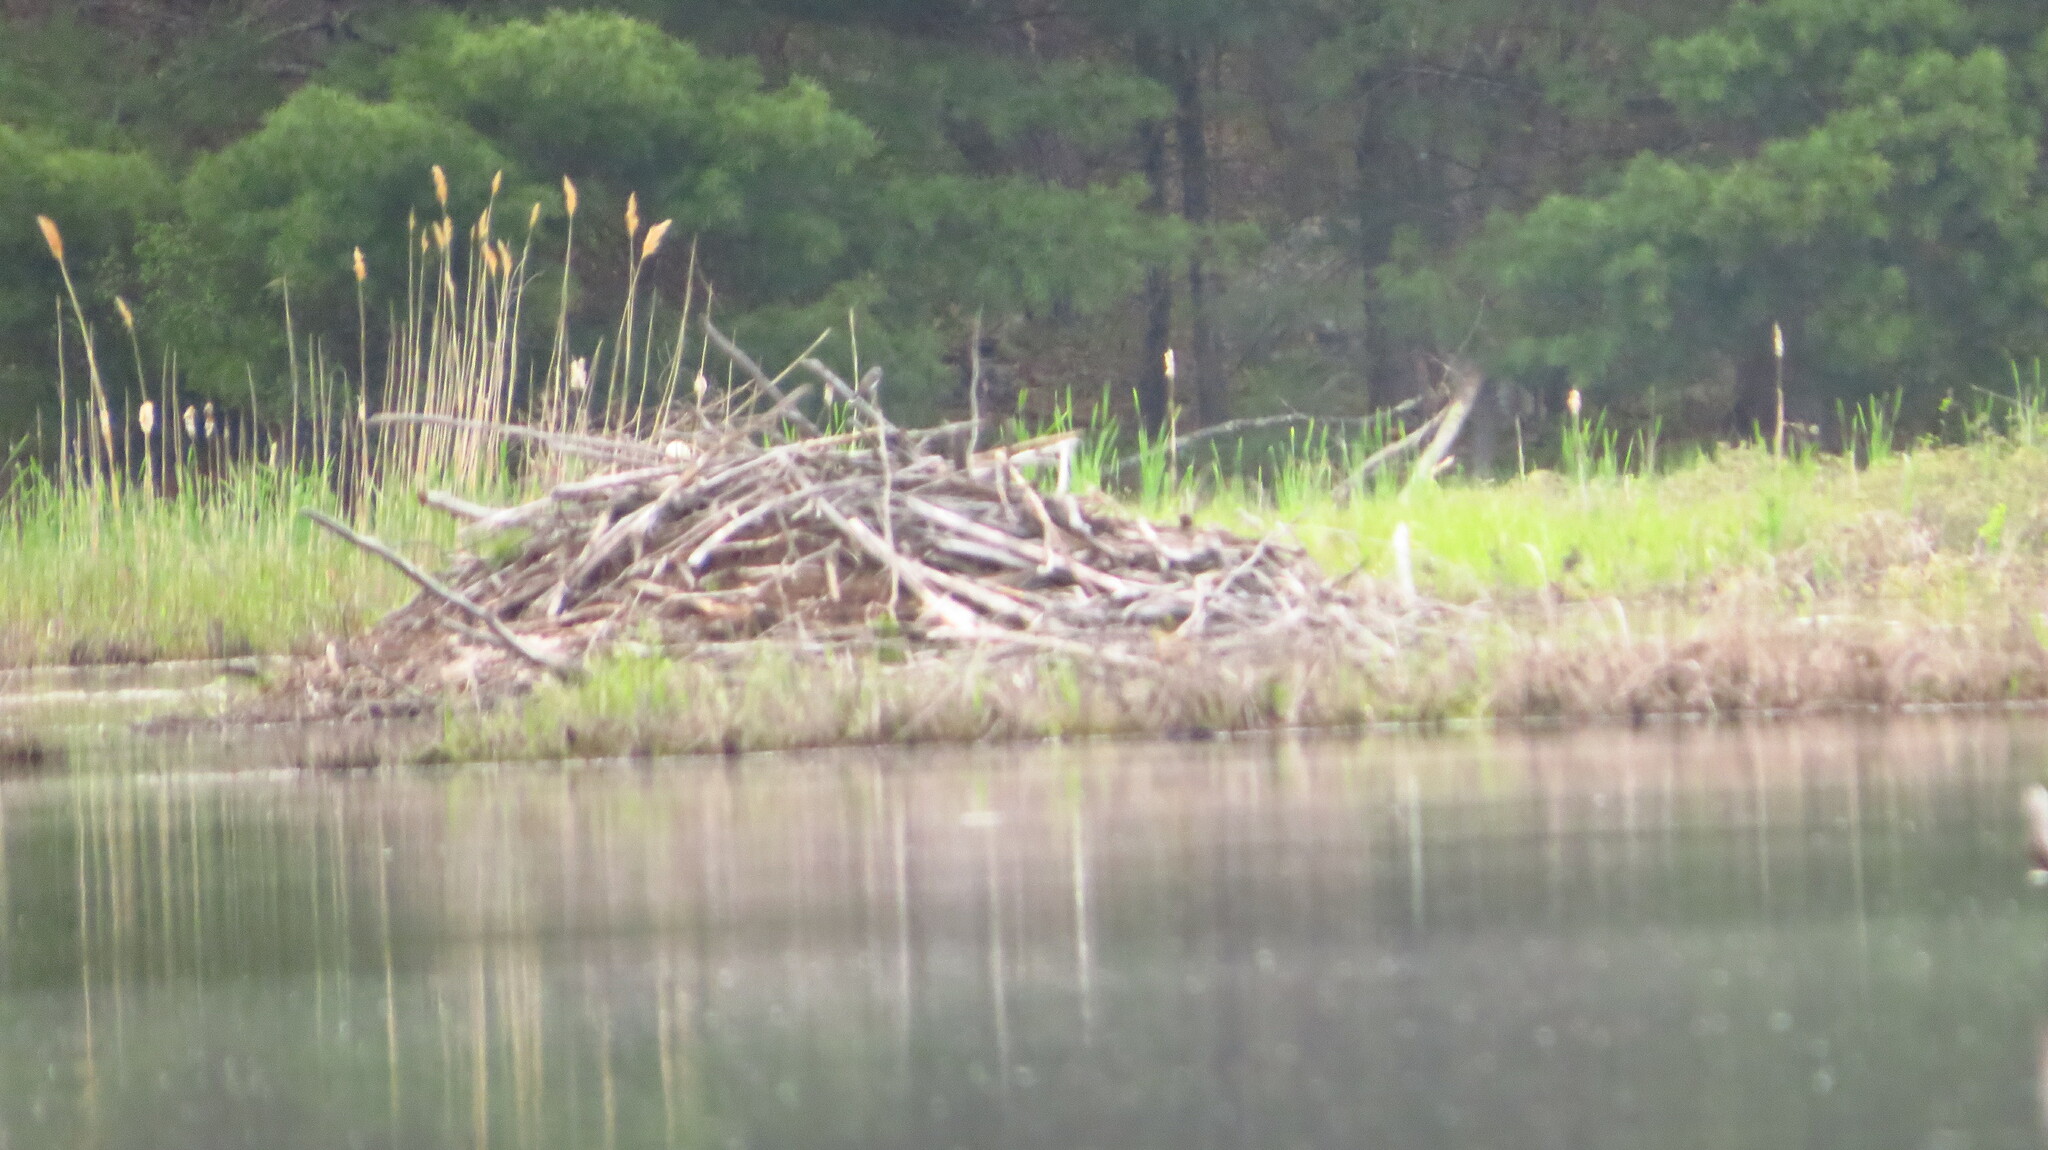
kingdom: Animalia
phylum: Chordata
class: Mammalia
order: Rodentia
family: Castoridae
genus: Castor
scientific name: Castor canadensis
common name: American beaver
